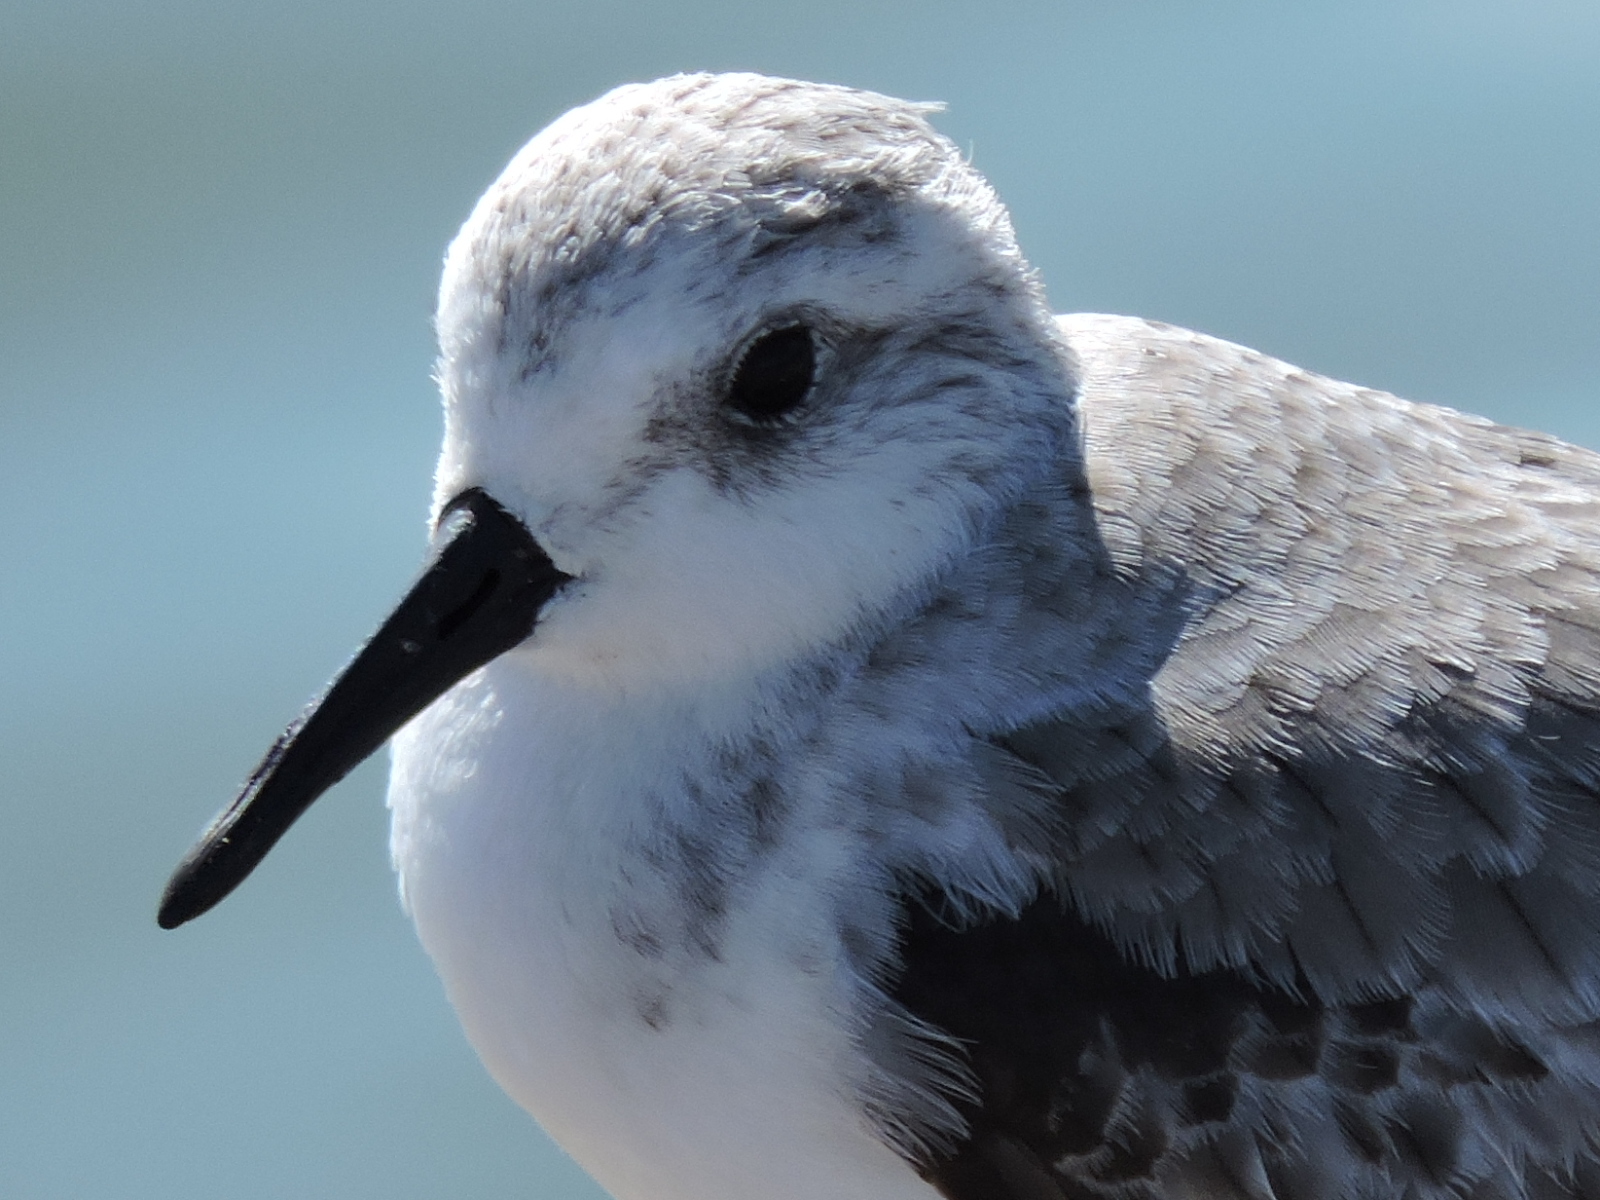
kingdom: Animalia
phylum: Chordata
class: Aves
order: Charadriiformes
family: Scolopacidae
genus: Calidris
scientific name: Calidris alba
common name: Sanderling
